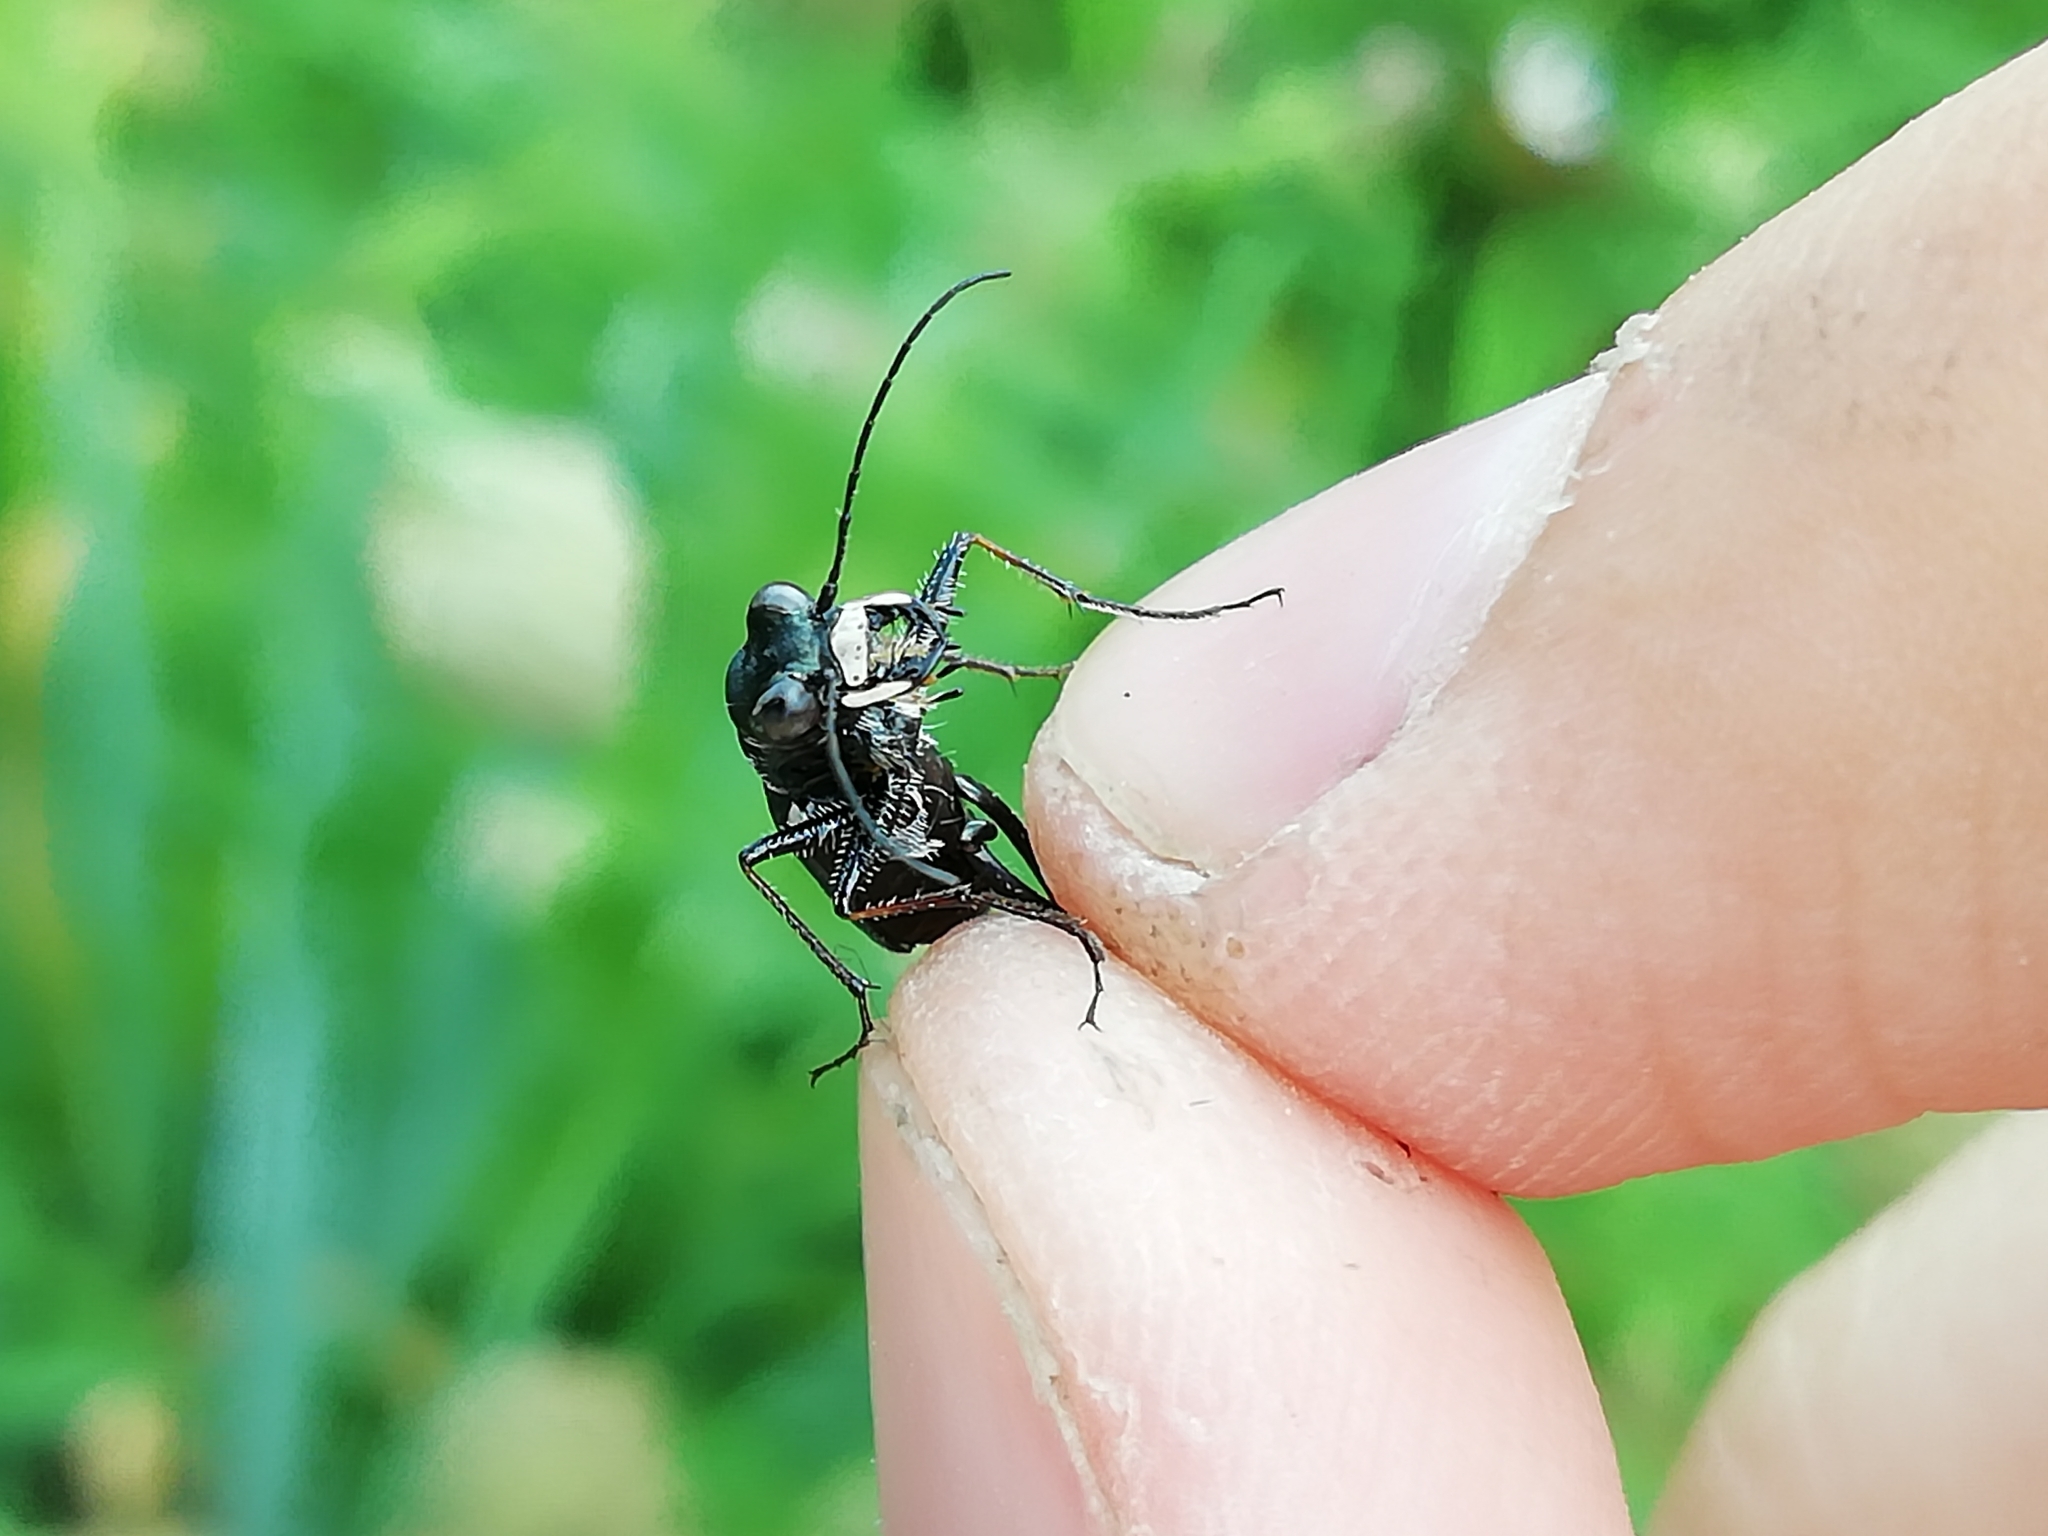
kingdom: Animalia
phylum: Arthropoda
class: Insecta
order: Coleoptera
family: Carabidae
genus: Cylindera
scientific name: Cylindera germanica
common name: Cliff tiger beetle
